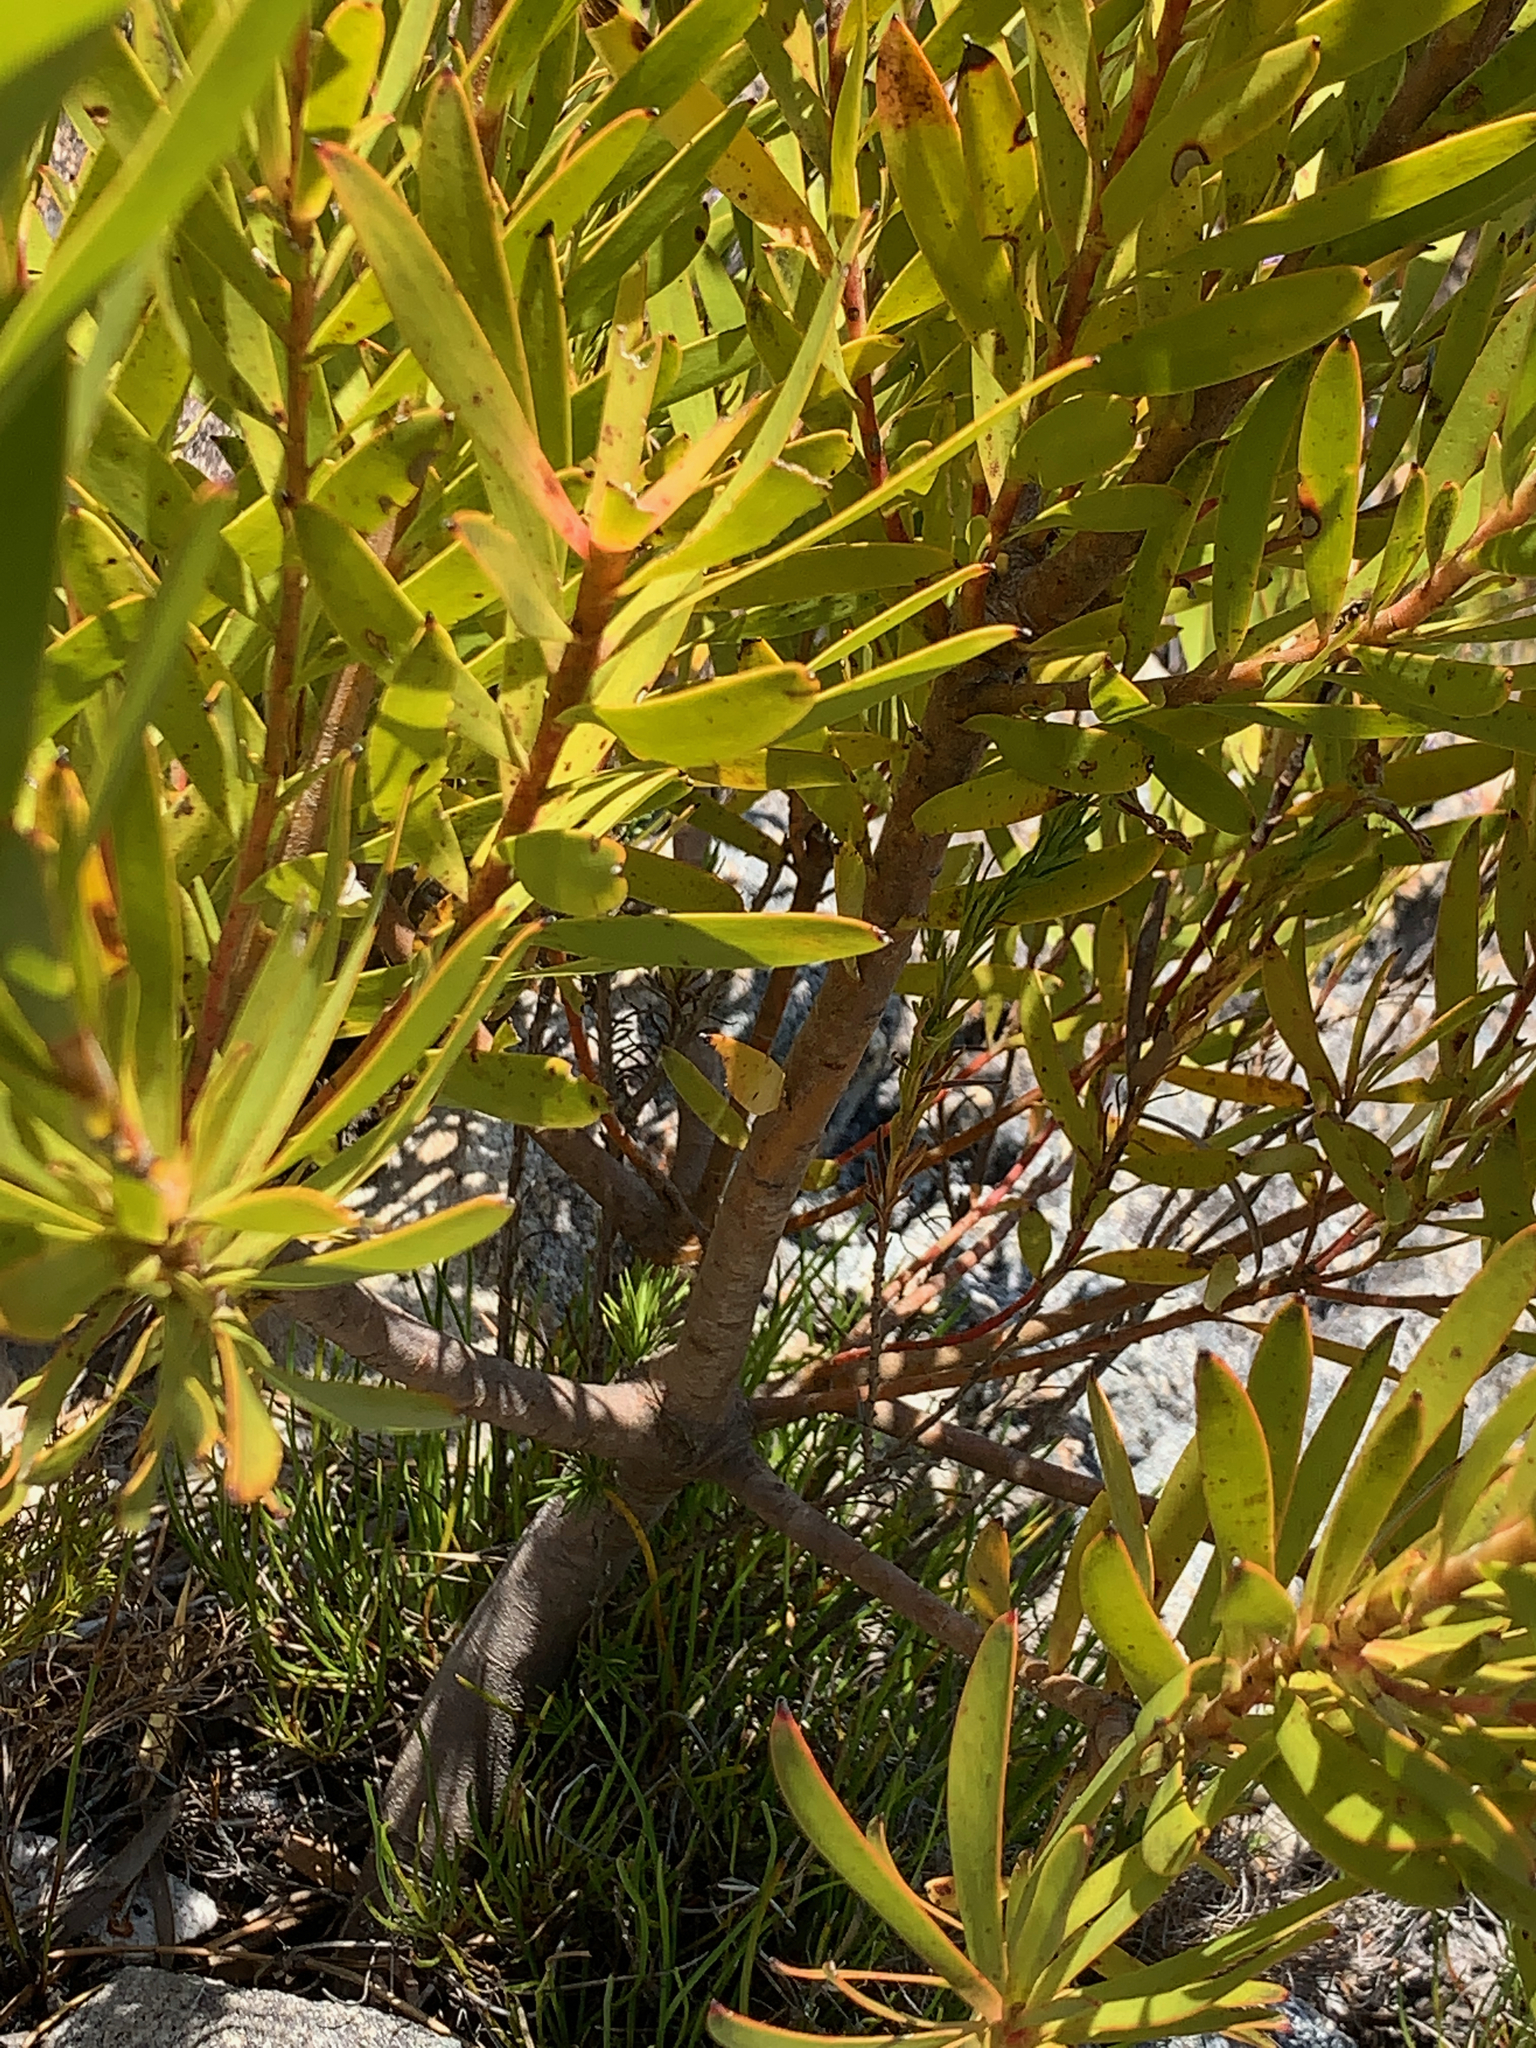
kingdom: Plantae
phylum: Tracheophyta
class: Magnoliopsida
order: Proteales
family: Proteaceae
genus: Leucadendron
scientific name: Leucadendron
